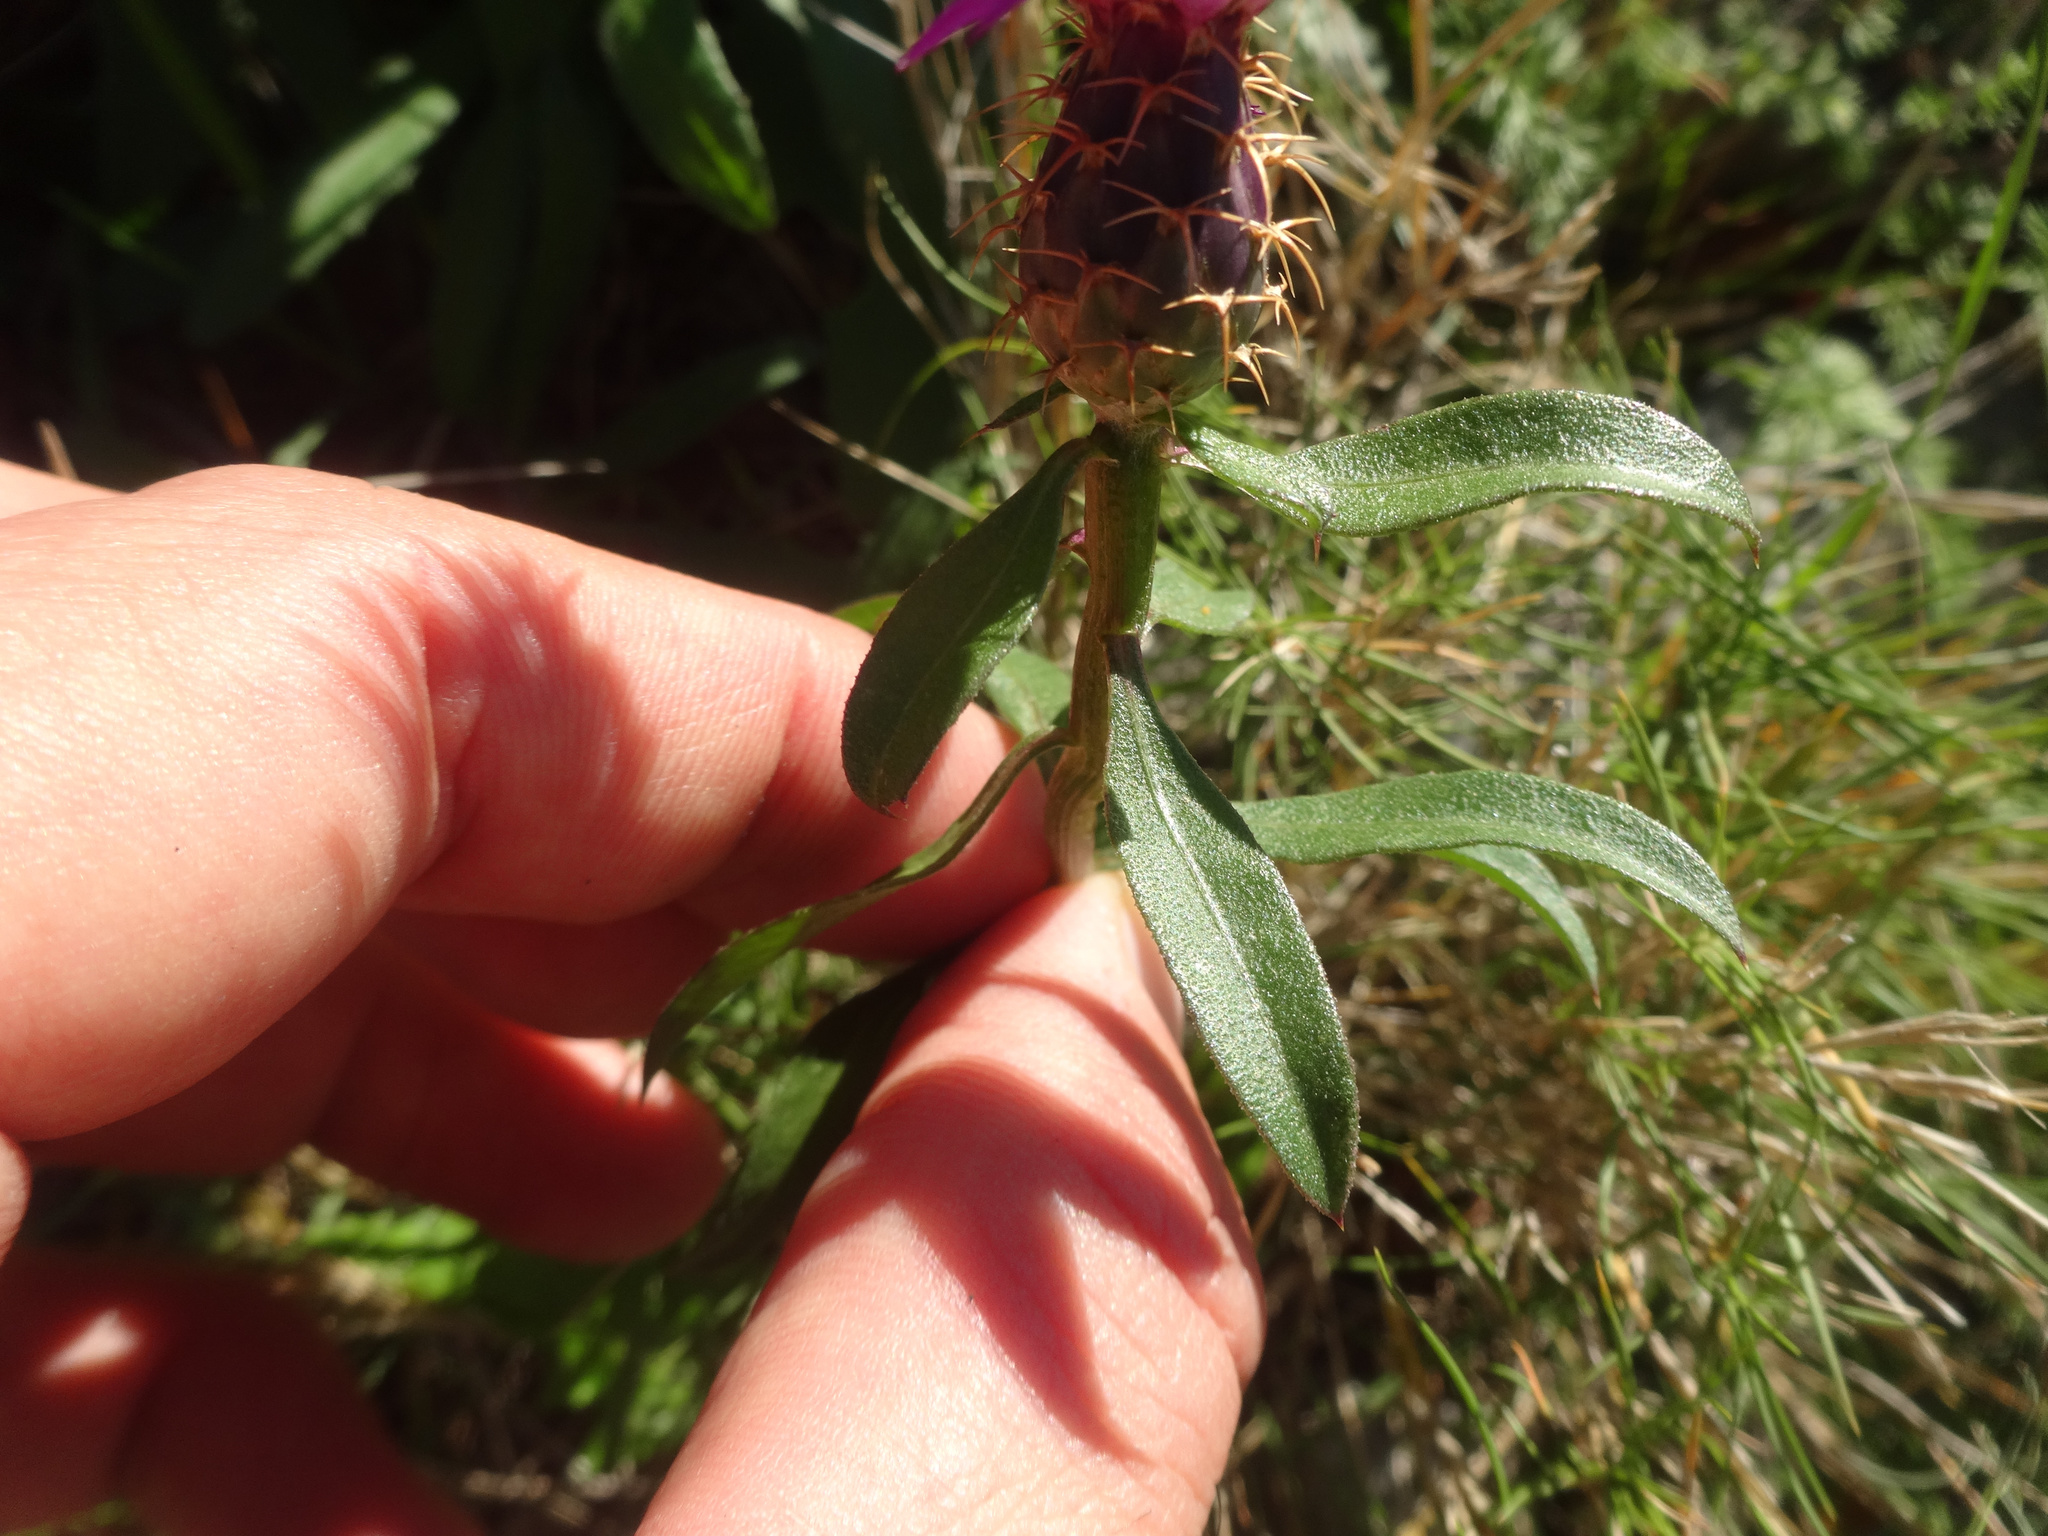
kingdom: Plantae
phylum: Tracheophyta
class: Magnoliopsida
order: Asterales
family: Asteraceae
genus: Centaurea
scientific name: Centaurea aspera
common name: Rough star-thistle
